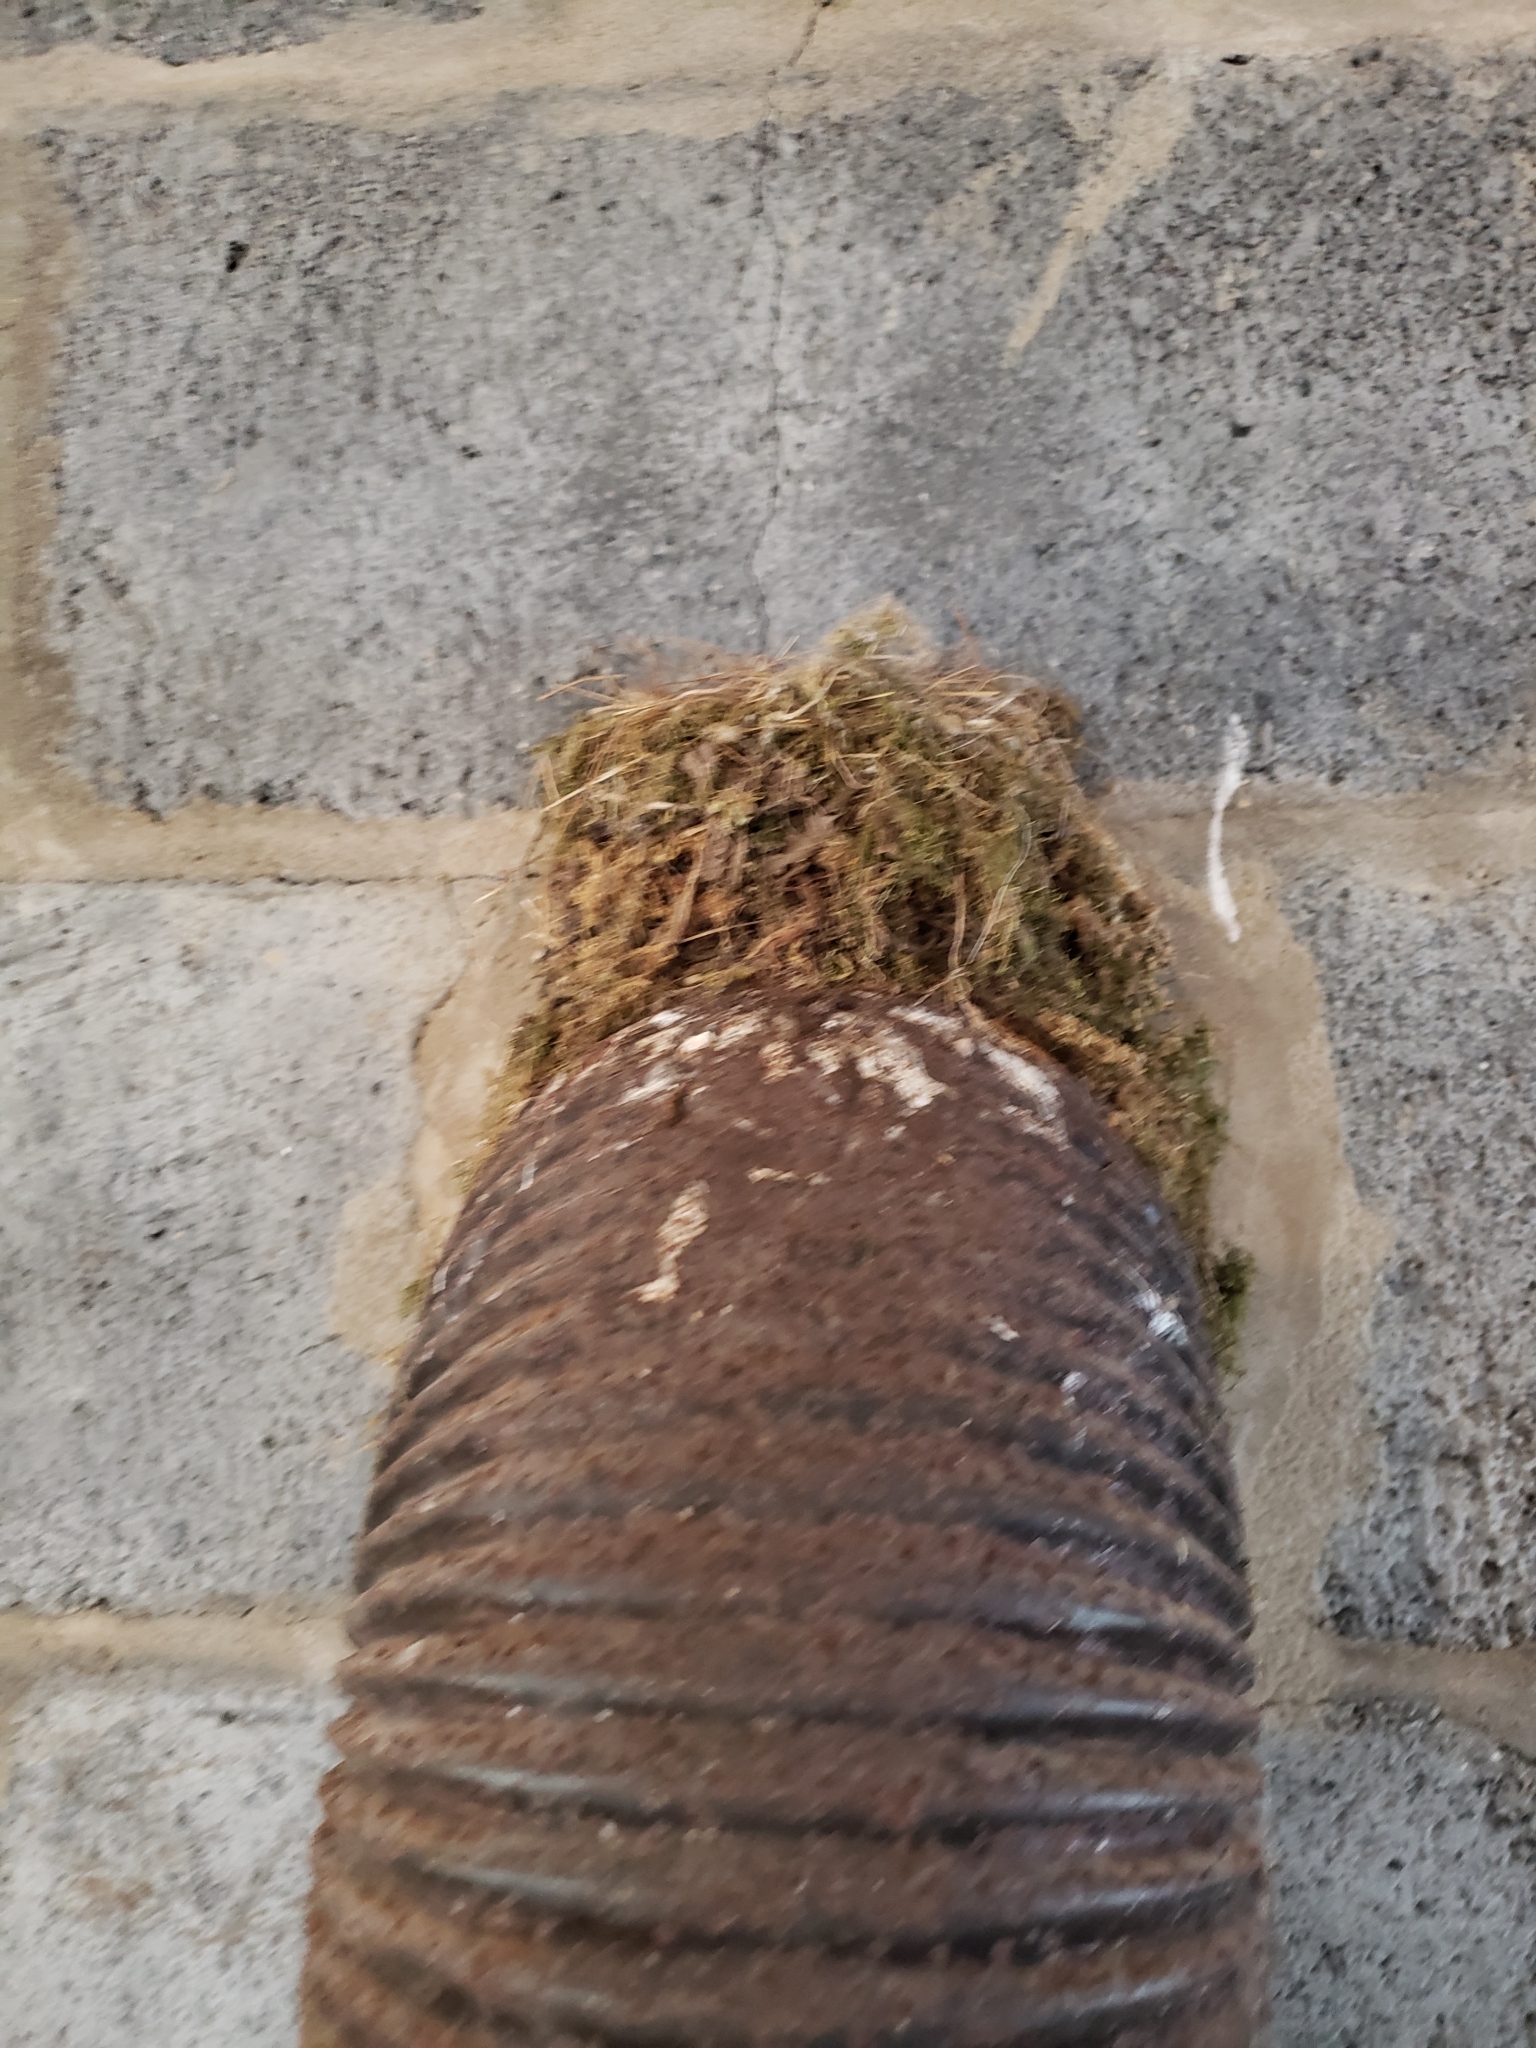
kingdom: Animalia
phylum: Chordata
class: Aves
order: Passeriformes
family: Tyrannidae
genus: Sayornis
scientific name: Sayornis phoebe
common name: Eastern phoebe
